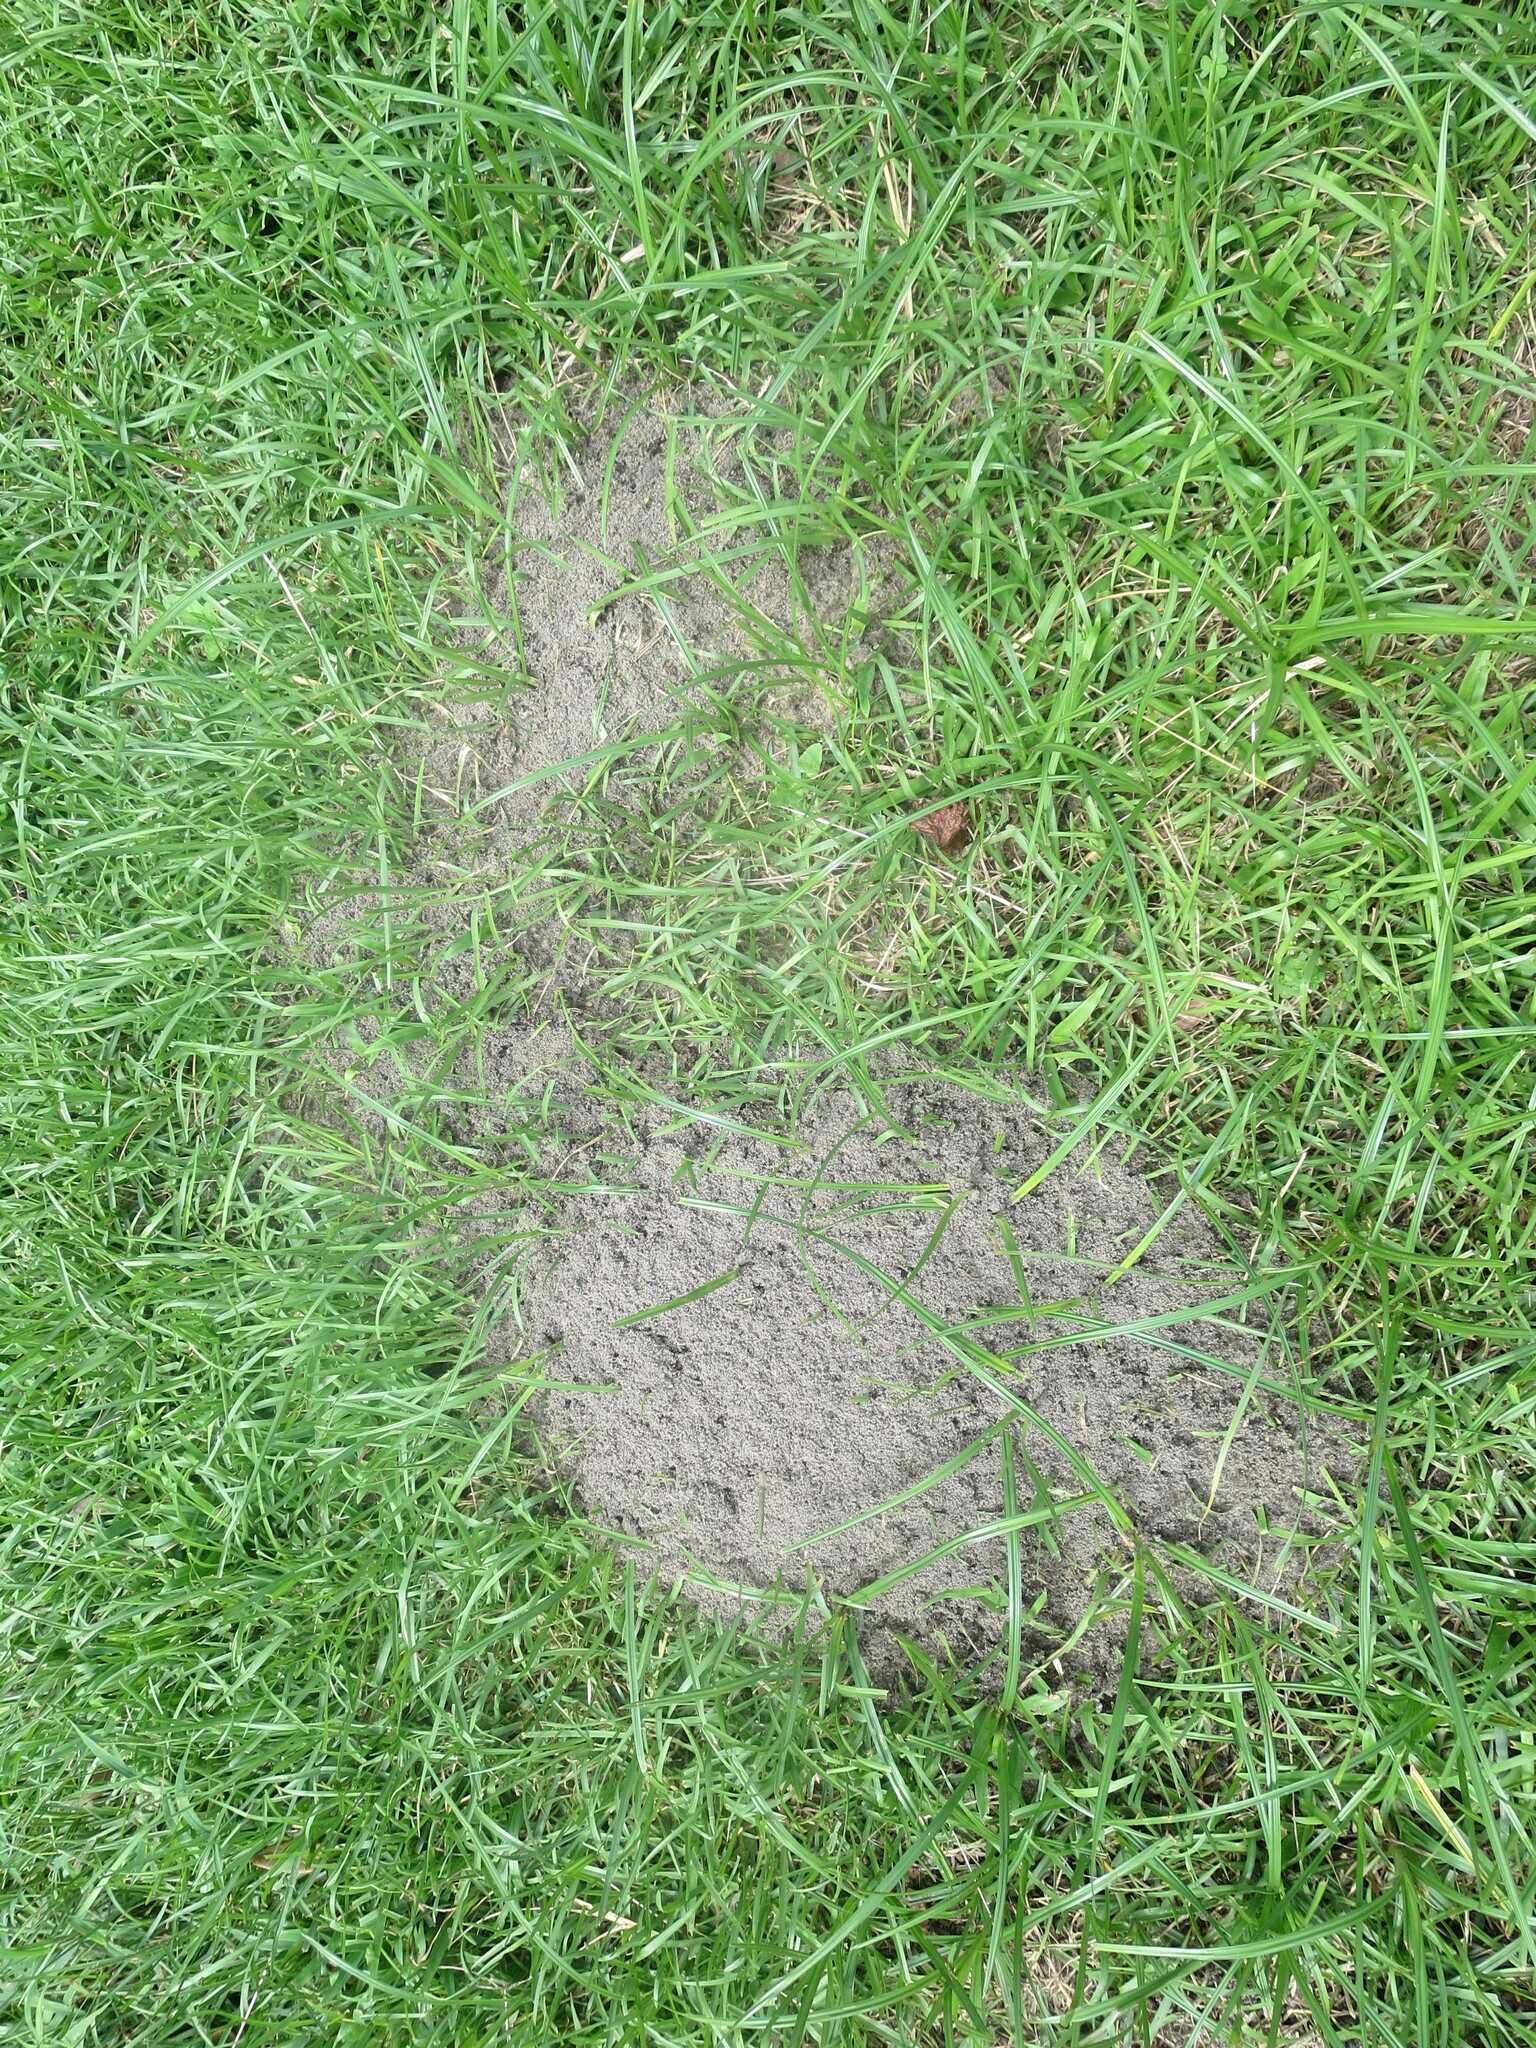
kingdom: Animalia
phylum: Arthropoda
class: Insecta
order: Hymenoptera
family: Formicidae
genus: Solenopsis
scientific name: Solenopsis invicta
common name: Red imported fire ant
